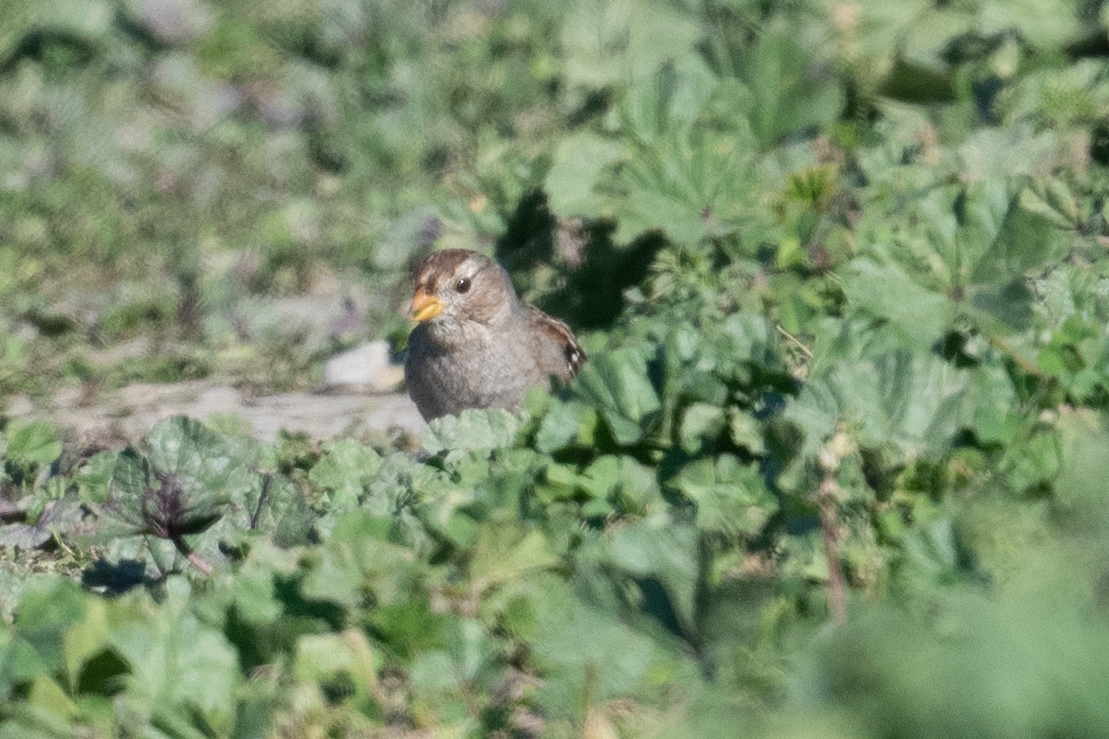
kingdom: Animalia
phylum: Chordata
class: Aves
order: Passeriformes
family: Passerellidae
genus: Zonotrichia
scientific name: Zonotrichia leucophrys
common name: White-crowned sparrow
